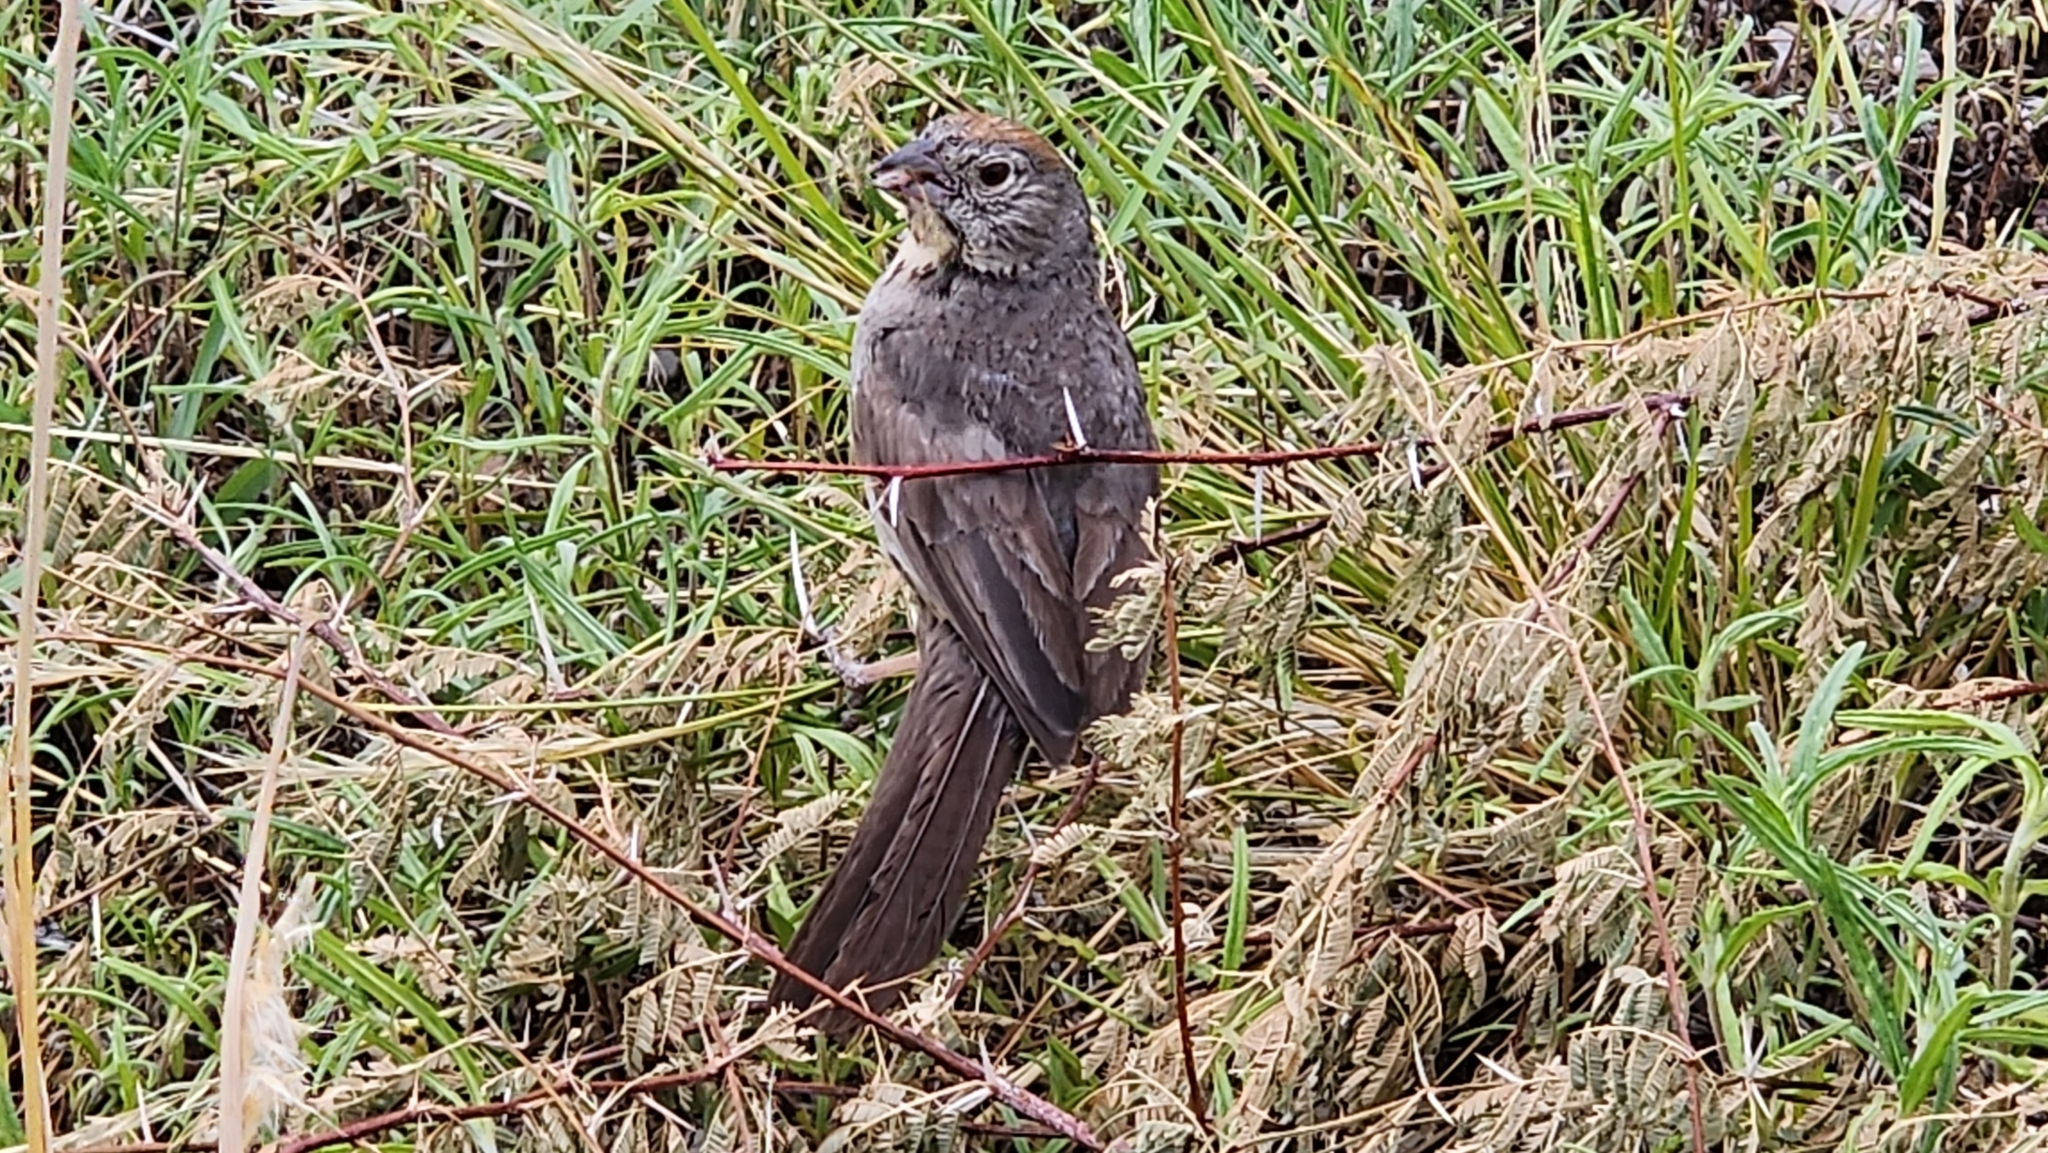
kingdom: Animalia
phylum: Chordata
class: Aves
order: Passeriformes
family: Passerellidae
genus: Melozone
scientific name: Melozone fusca
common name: Canyon towhee
